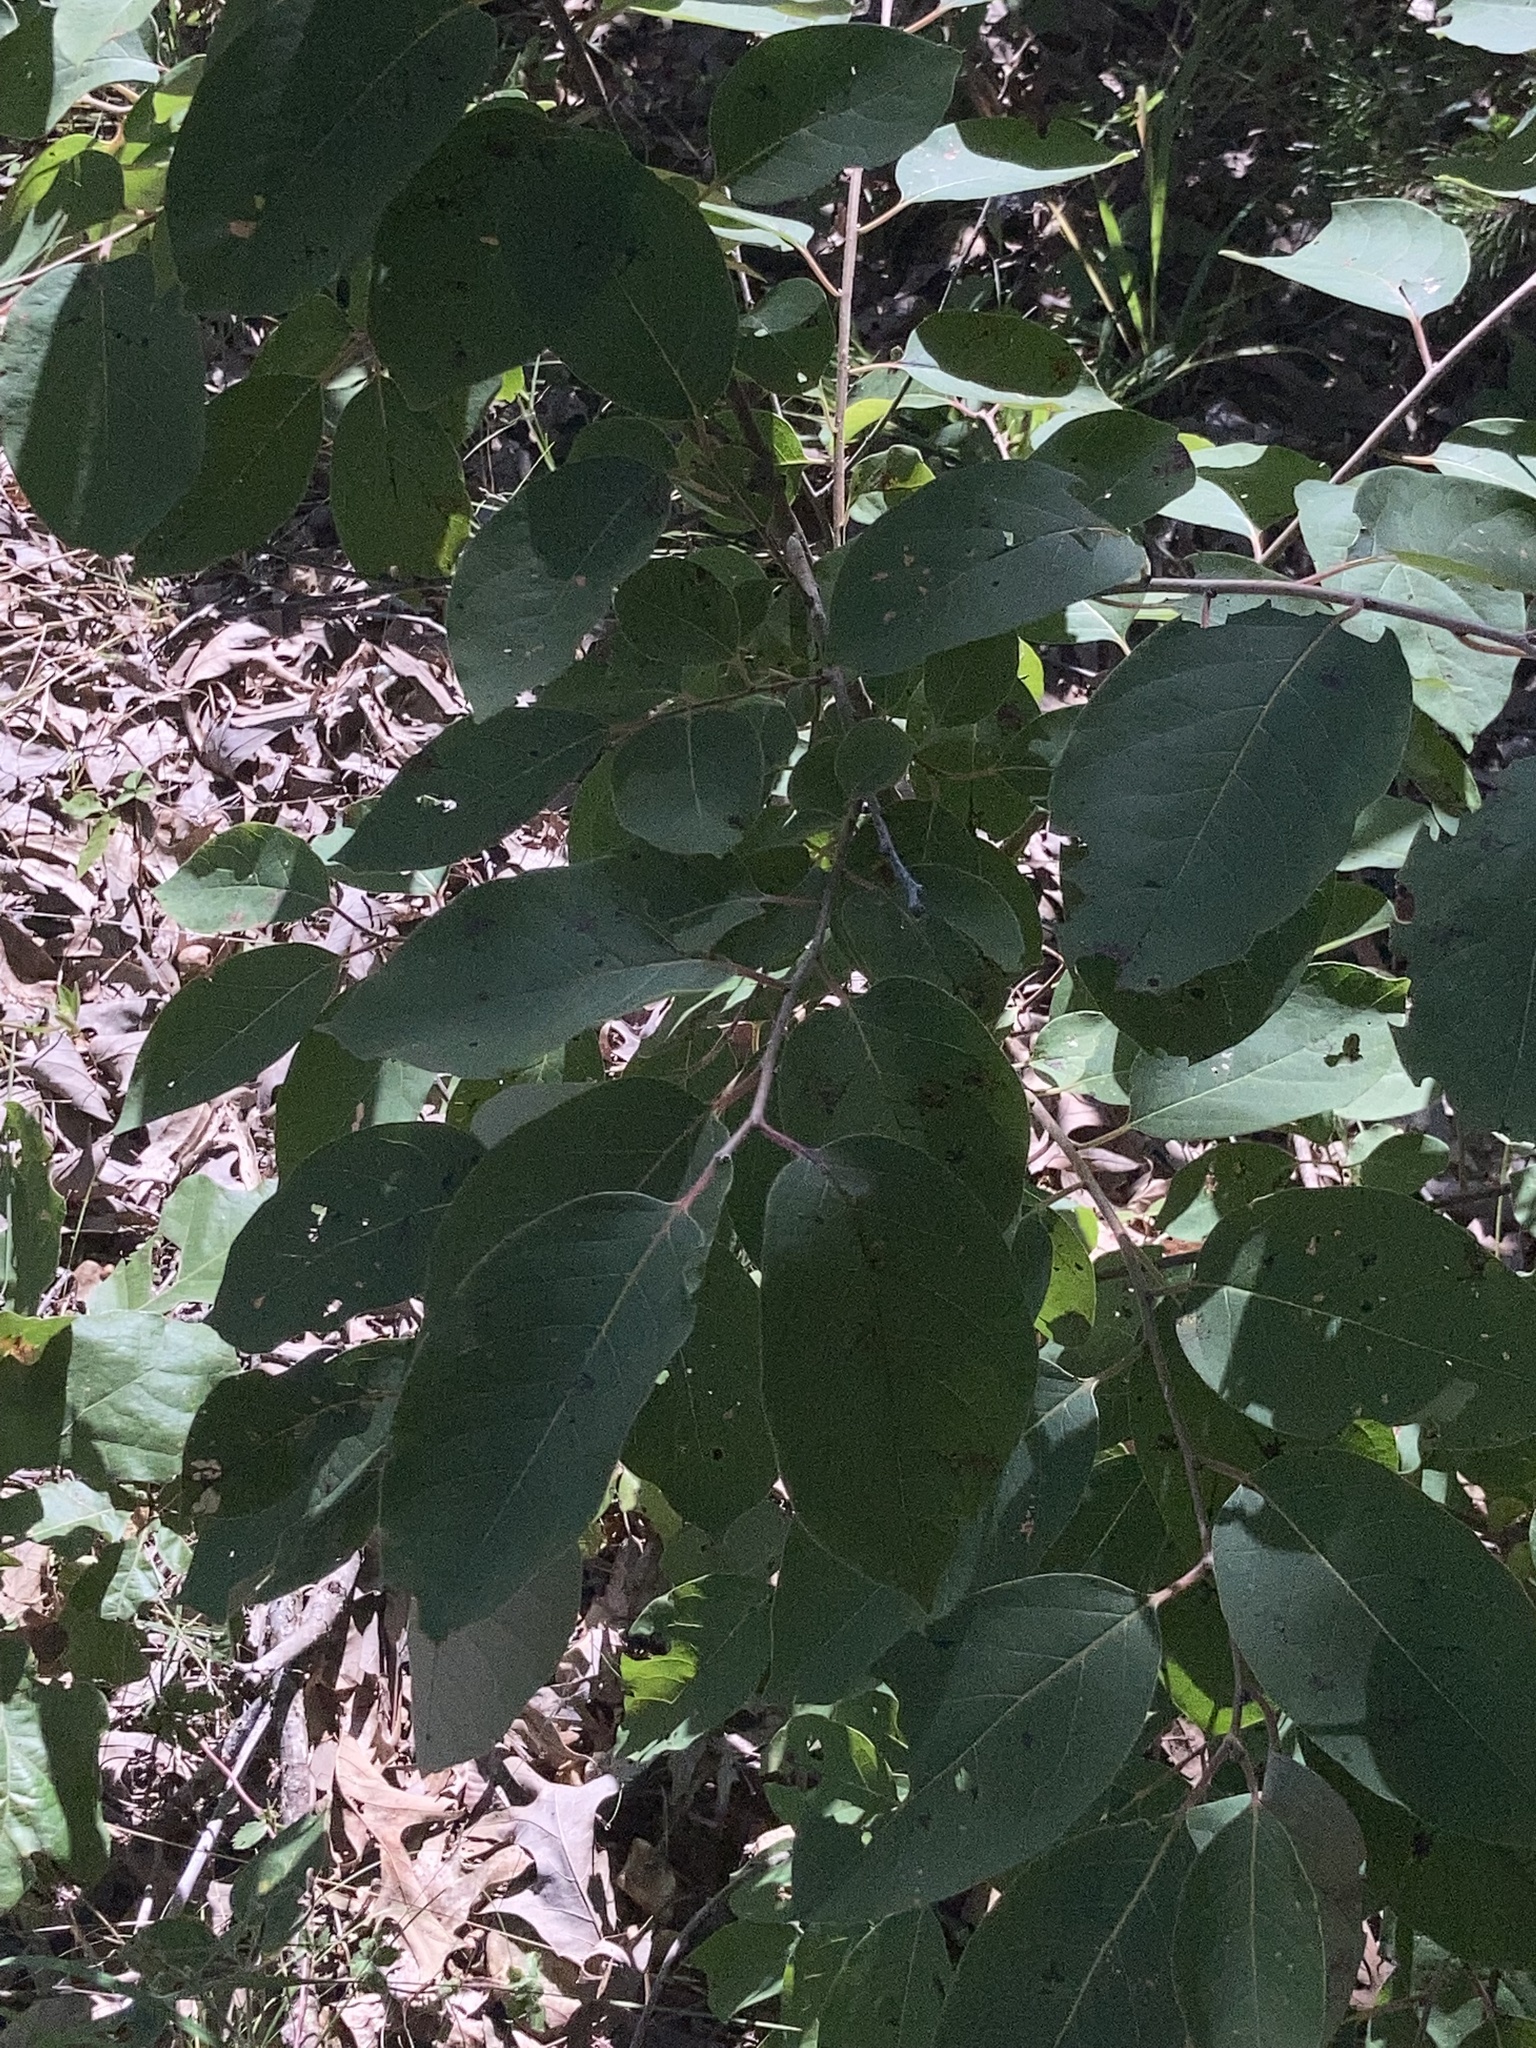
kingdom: Plantae
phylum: Tracheophyta
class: Magnoliopsida
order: Ericales
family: Ebenaceae
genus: Diospyros
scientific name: Diospyros virginiana
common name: Persimmon
